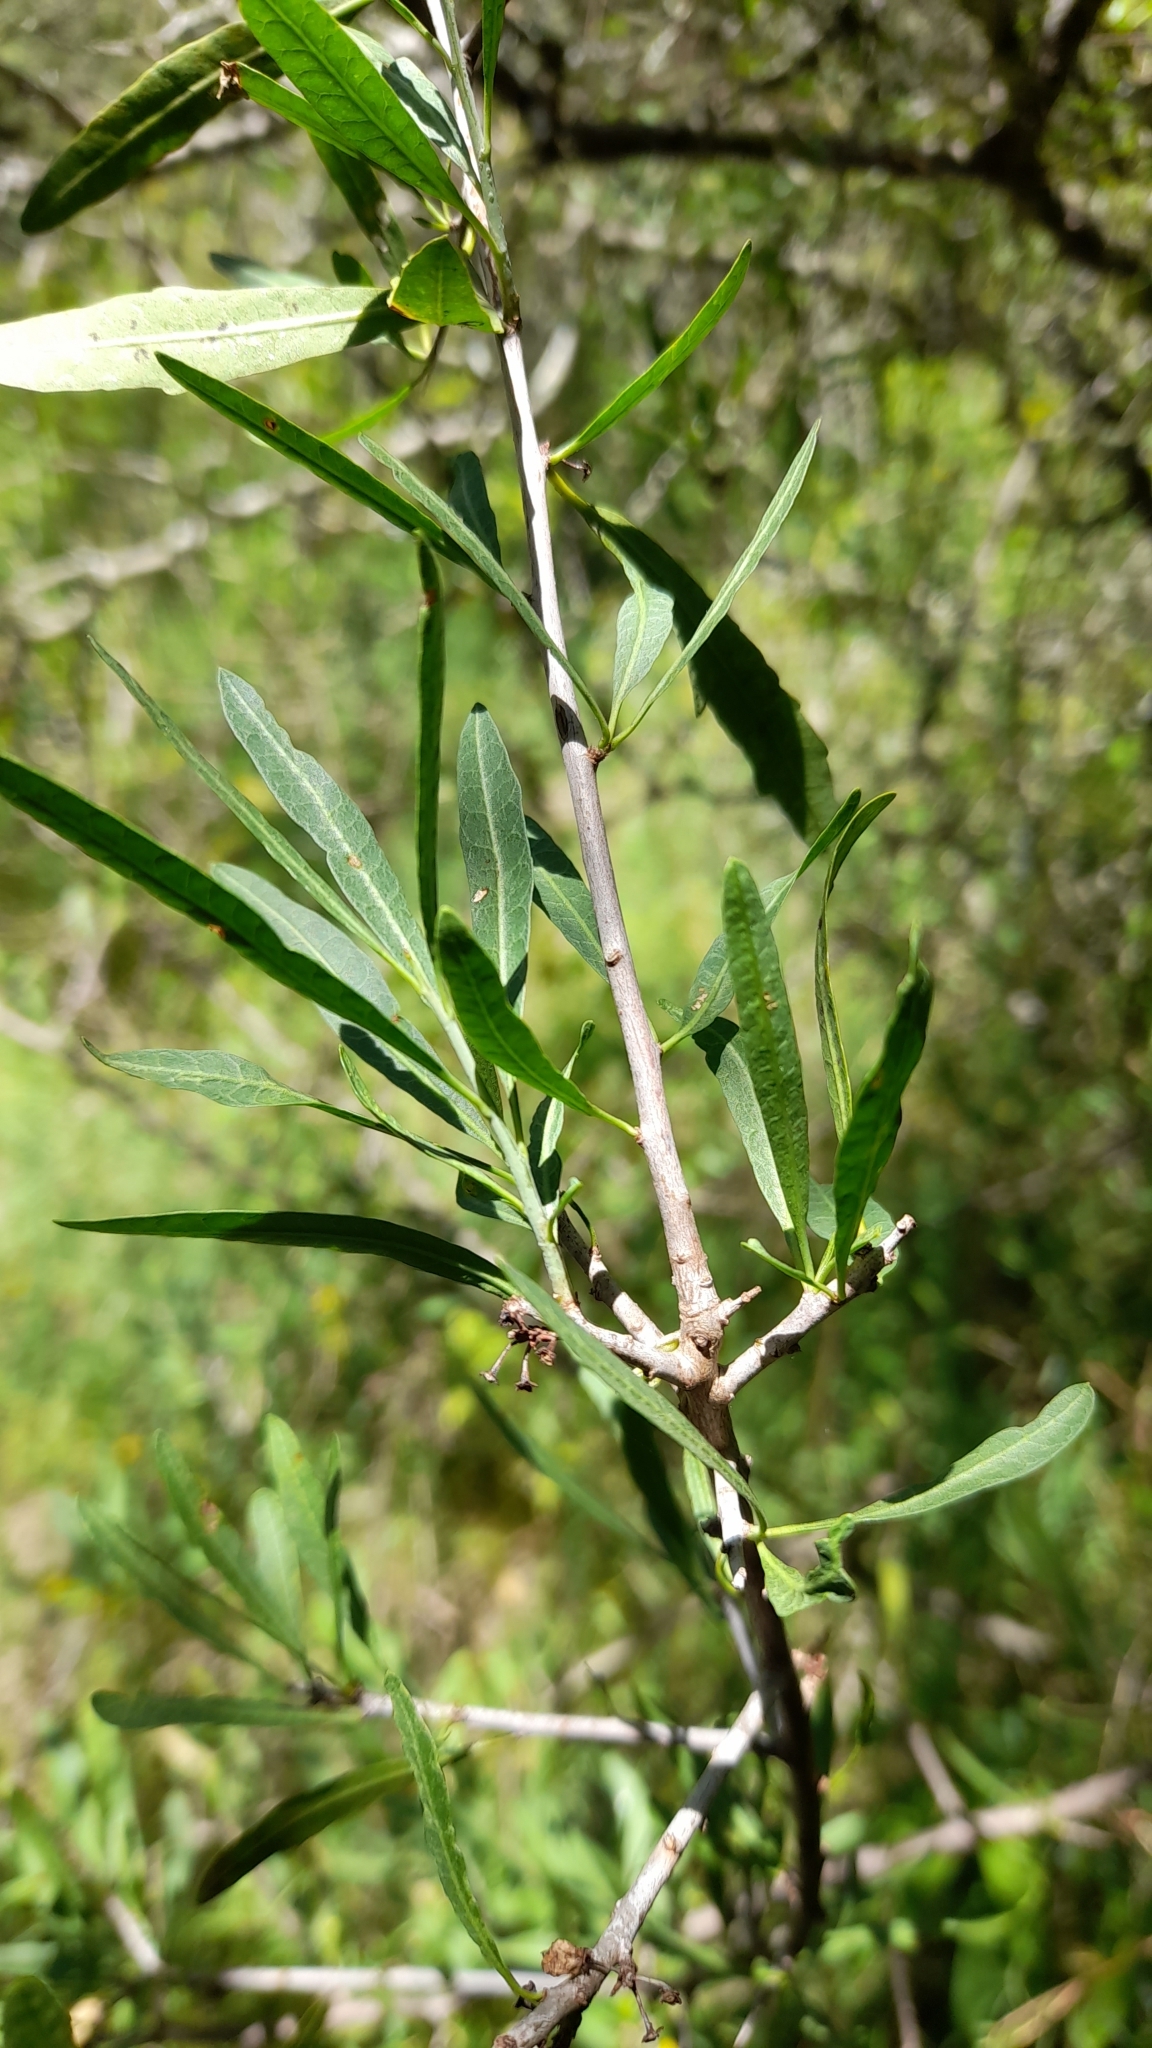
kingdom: Plantae
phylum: Tracheophyta
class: Magnoliopsida
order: Sapindales
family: Anacardiaceae
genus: Schinus
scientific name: Schinus longifolia
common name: Longleaf peppertree
